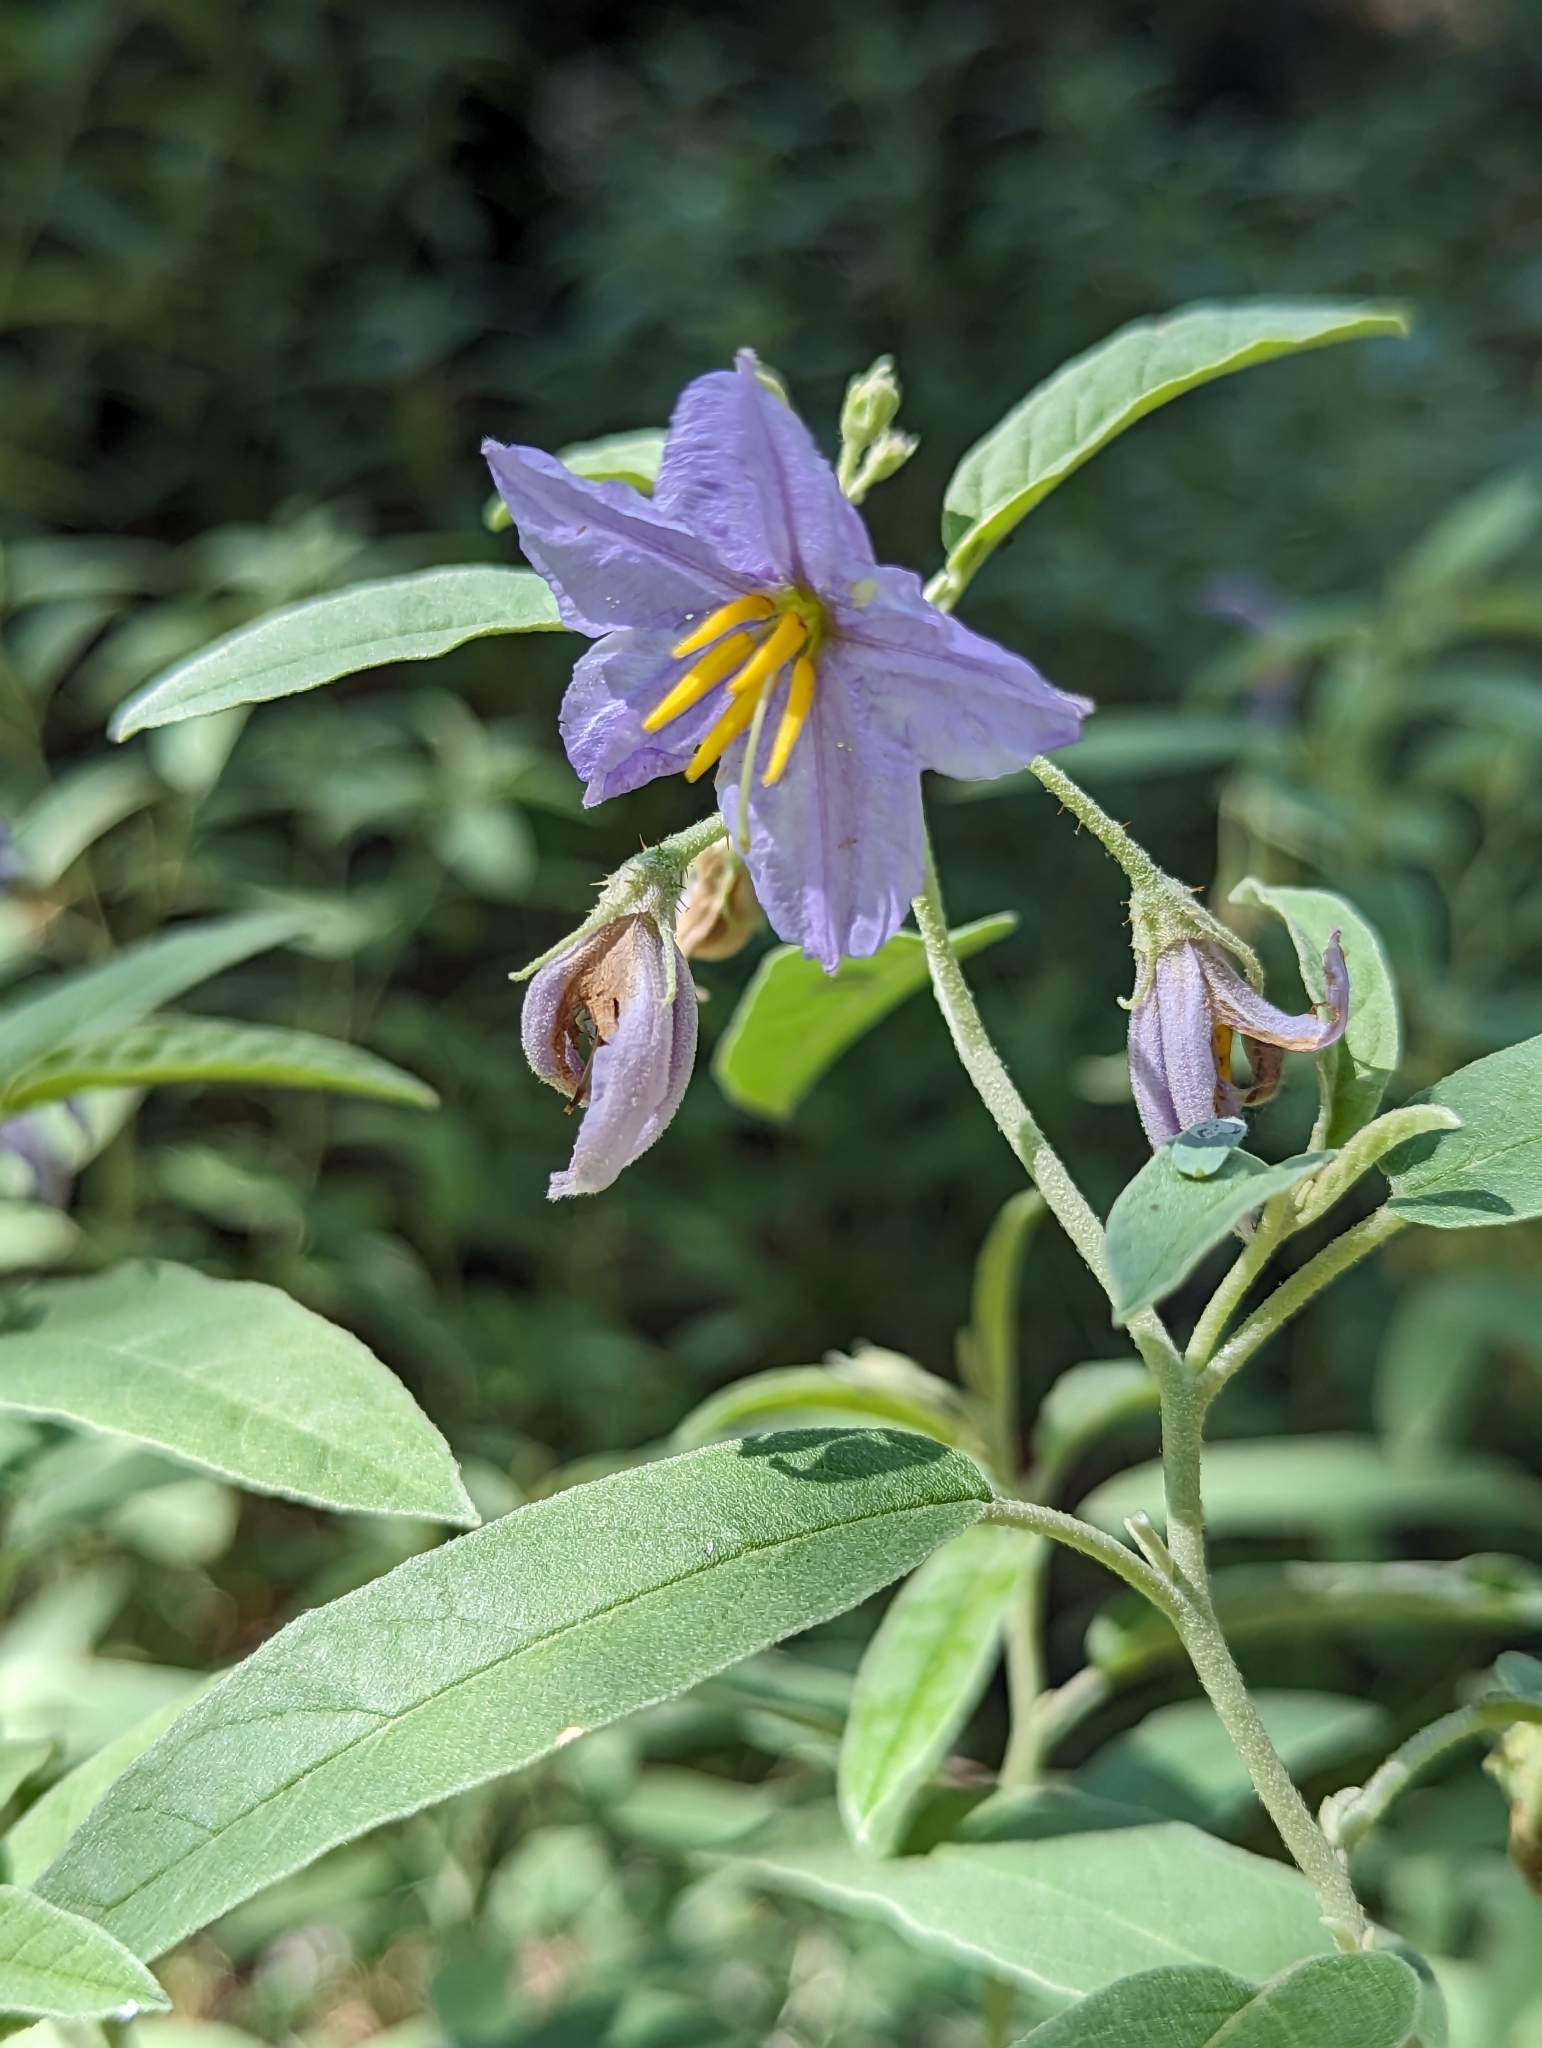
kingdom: Plantae
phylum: Tracheophyta
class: Magnoliopsida
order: Solanales
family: Solanaceae
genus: Solanum
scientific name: Solanum elaeagnifolium
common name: Silverleaf nightshade
